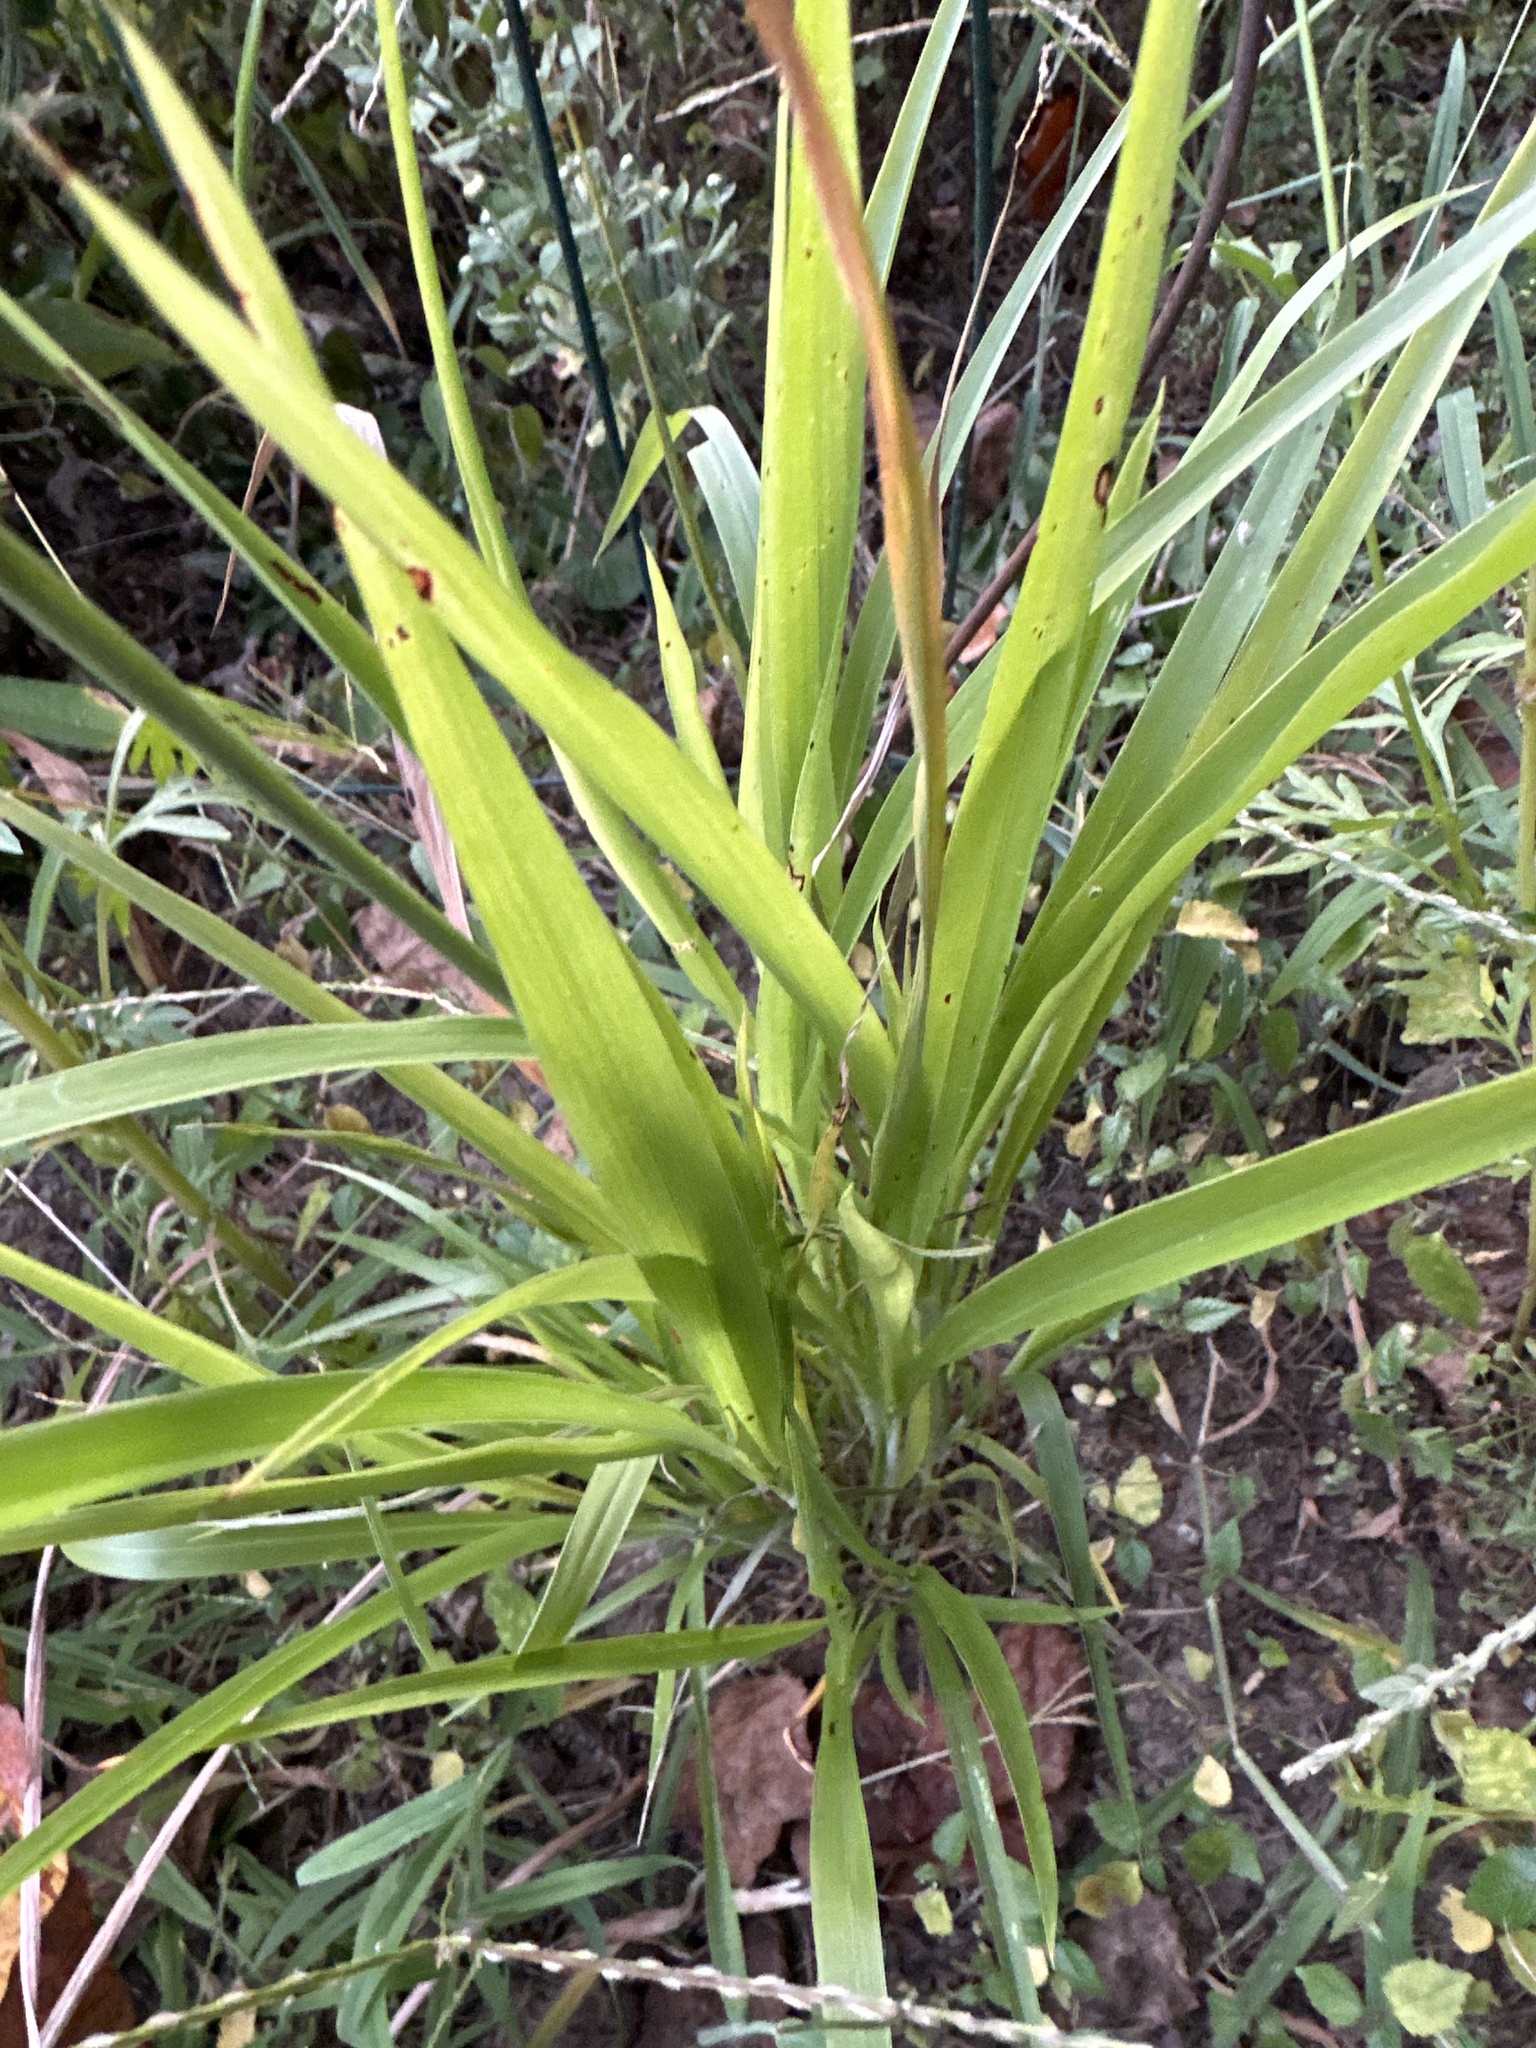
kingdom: Plantae
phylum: Tracheophyta
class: Magnoliopsida
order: Apiales
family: Apiaceae
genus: Eryngium
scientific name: Eryngium yuccifolium
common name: Button eryngo
